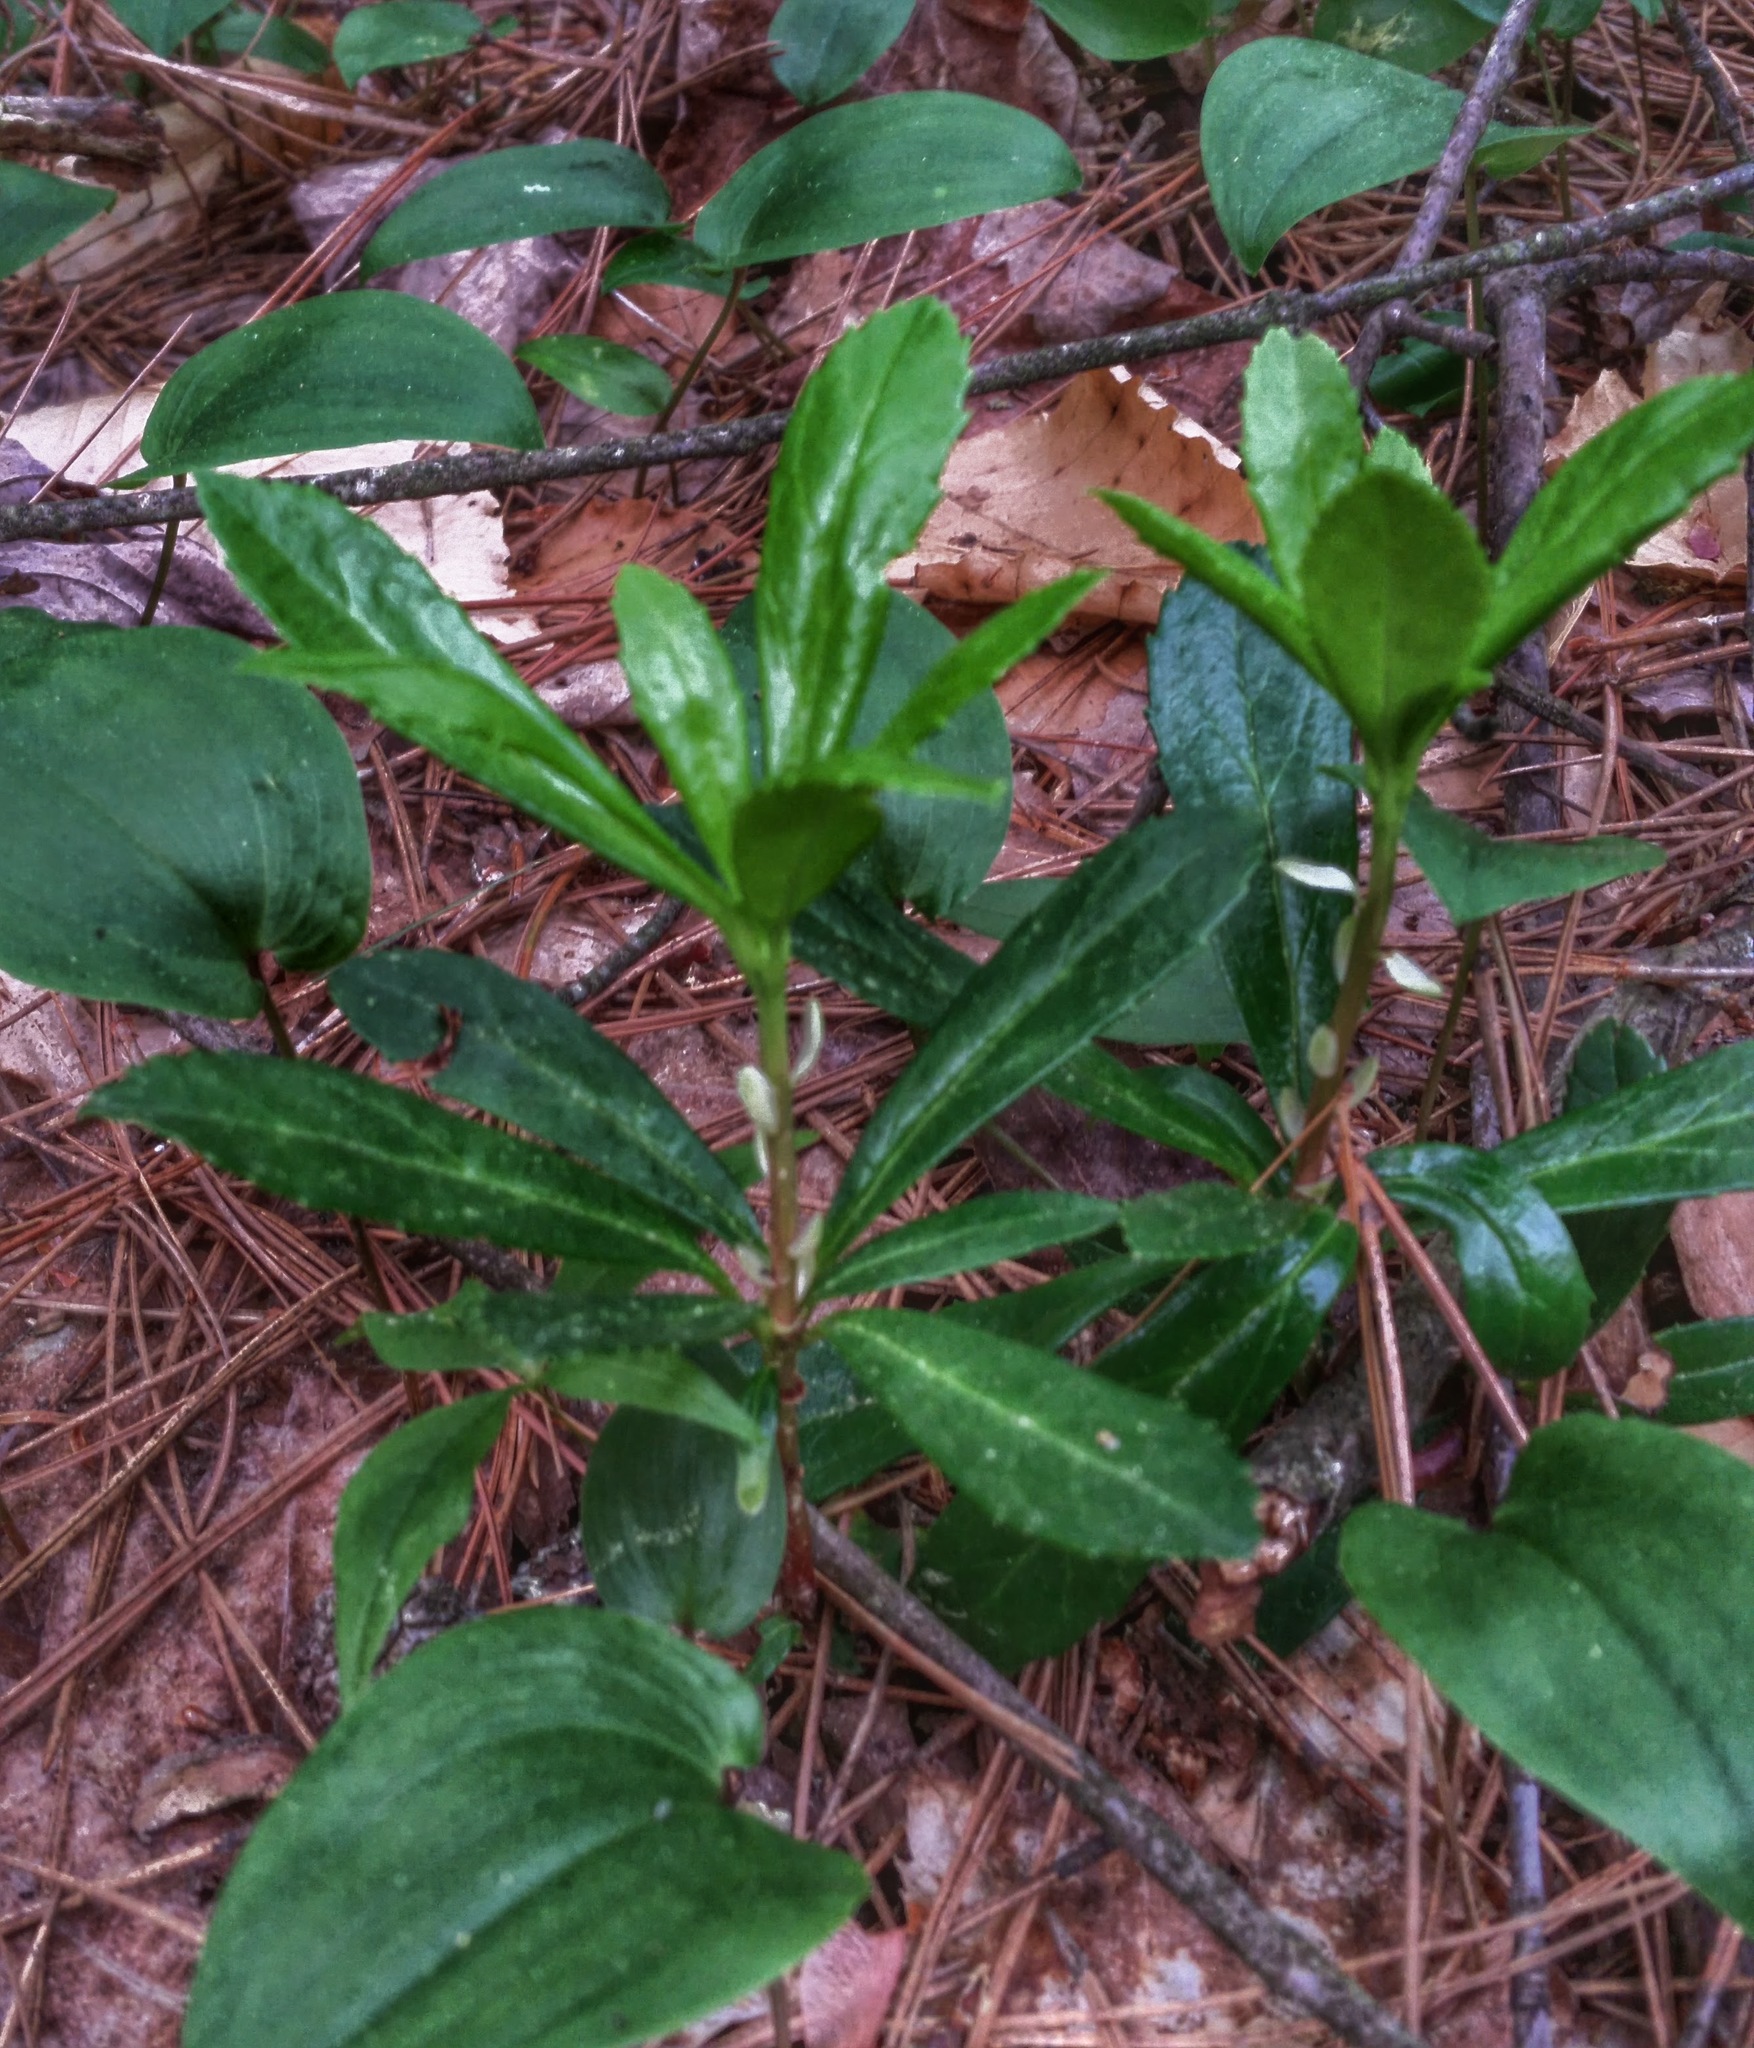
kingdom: Plantae
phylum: Tracheophyta
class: Magnoliopsida
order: Ericales
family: Ericaceae
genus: Chimaphila
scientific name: Chimaphila umbellata
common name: Pipsissewa
